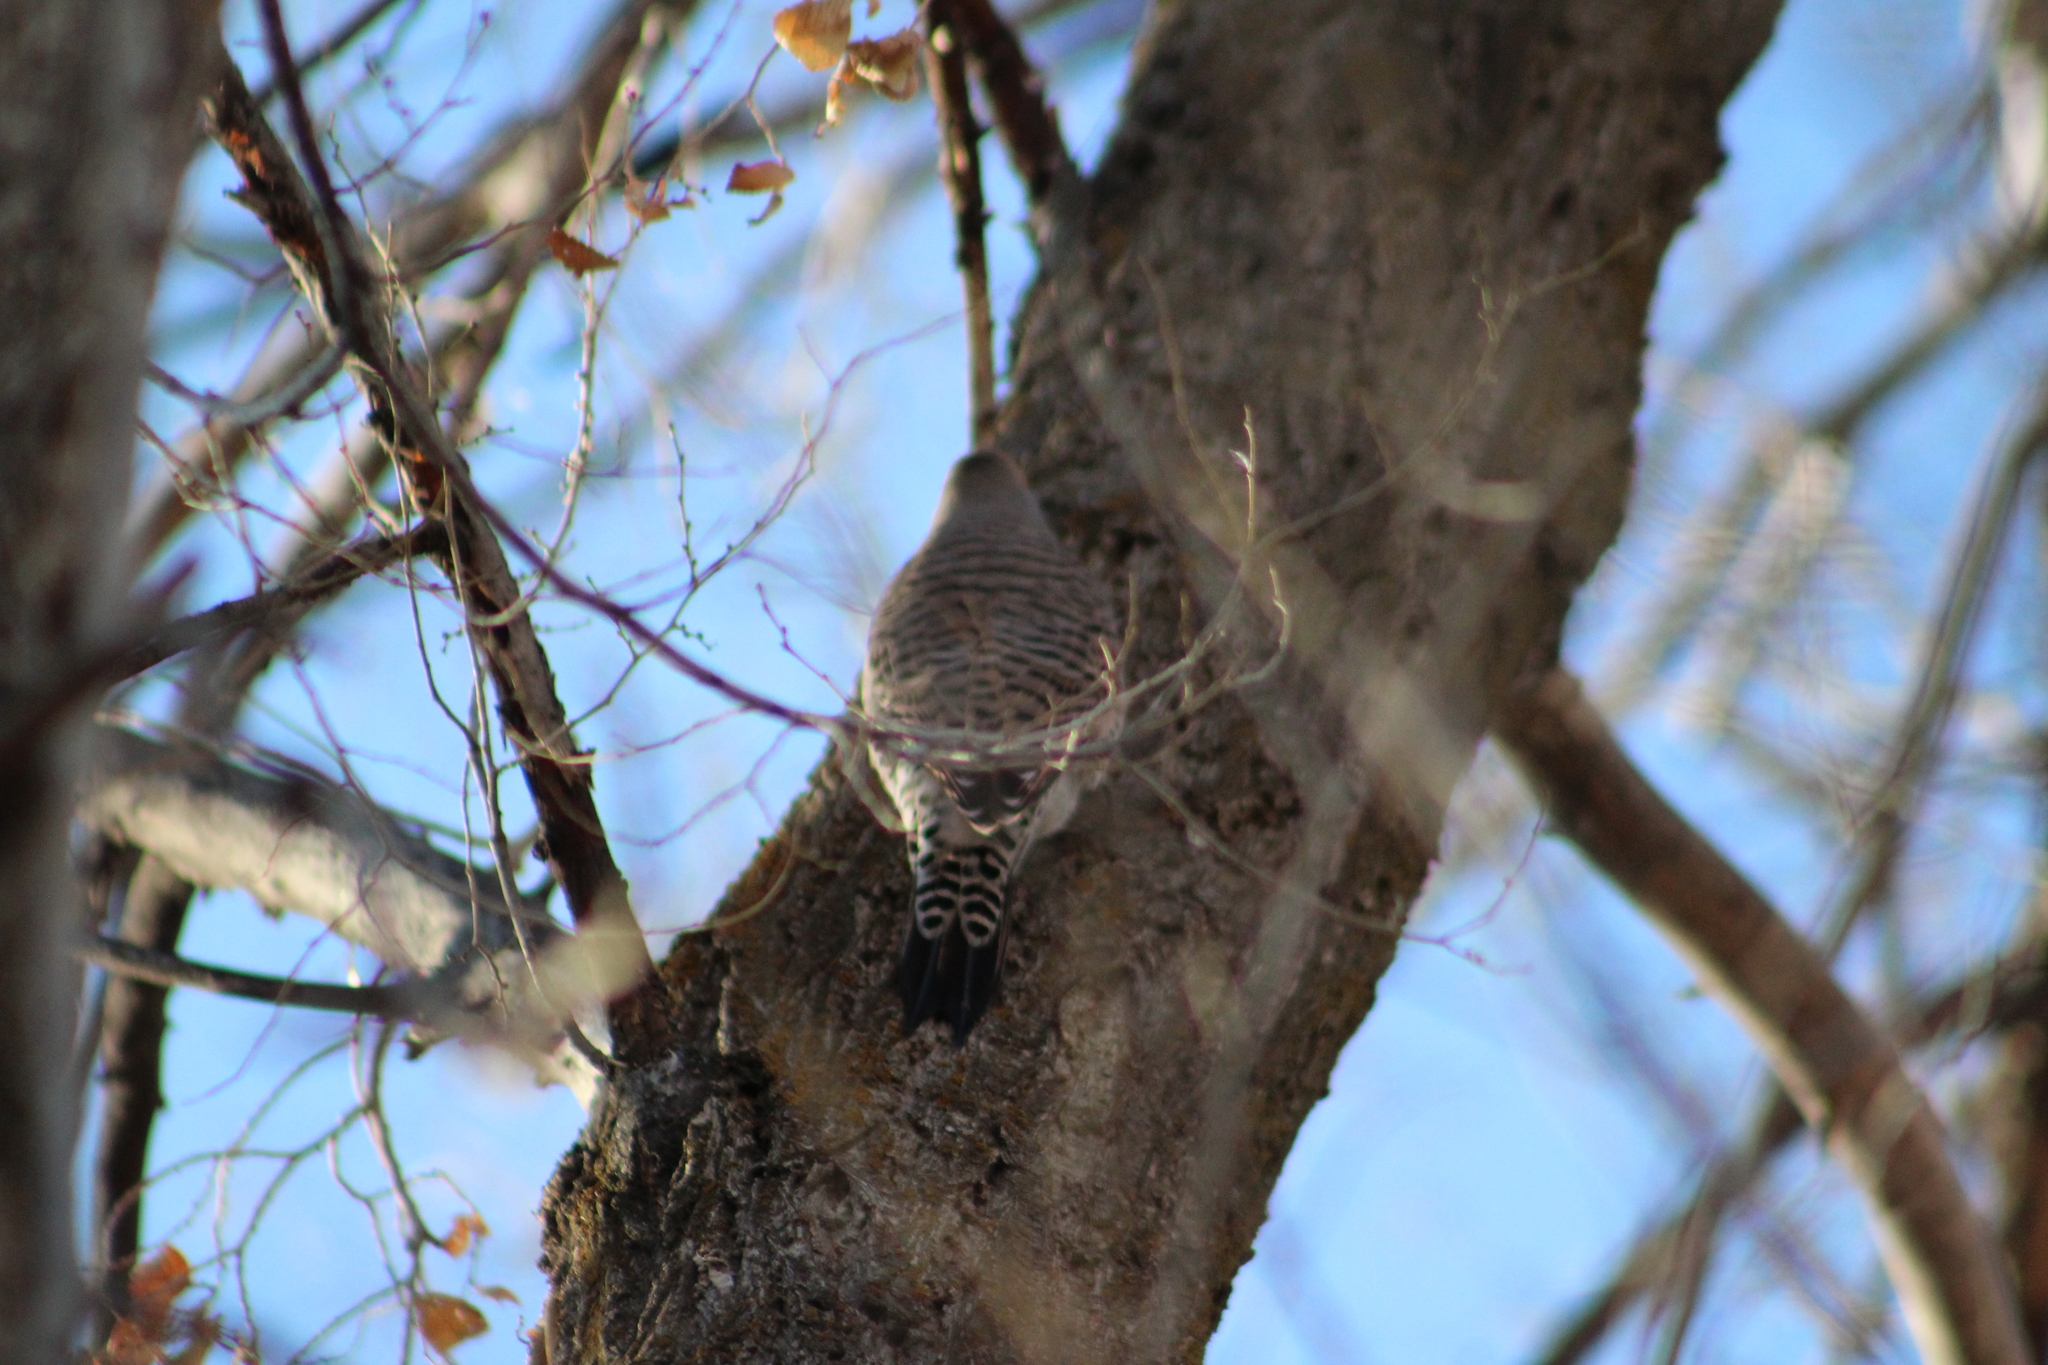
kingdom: Animalia
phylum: Chordata
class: Aves
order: Piciformes
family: Picidae
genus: Colaptes
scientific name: Colaptes auratus
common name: Northern flicker
